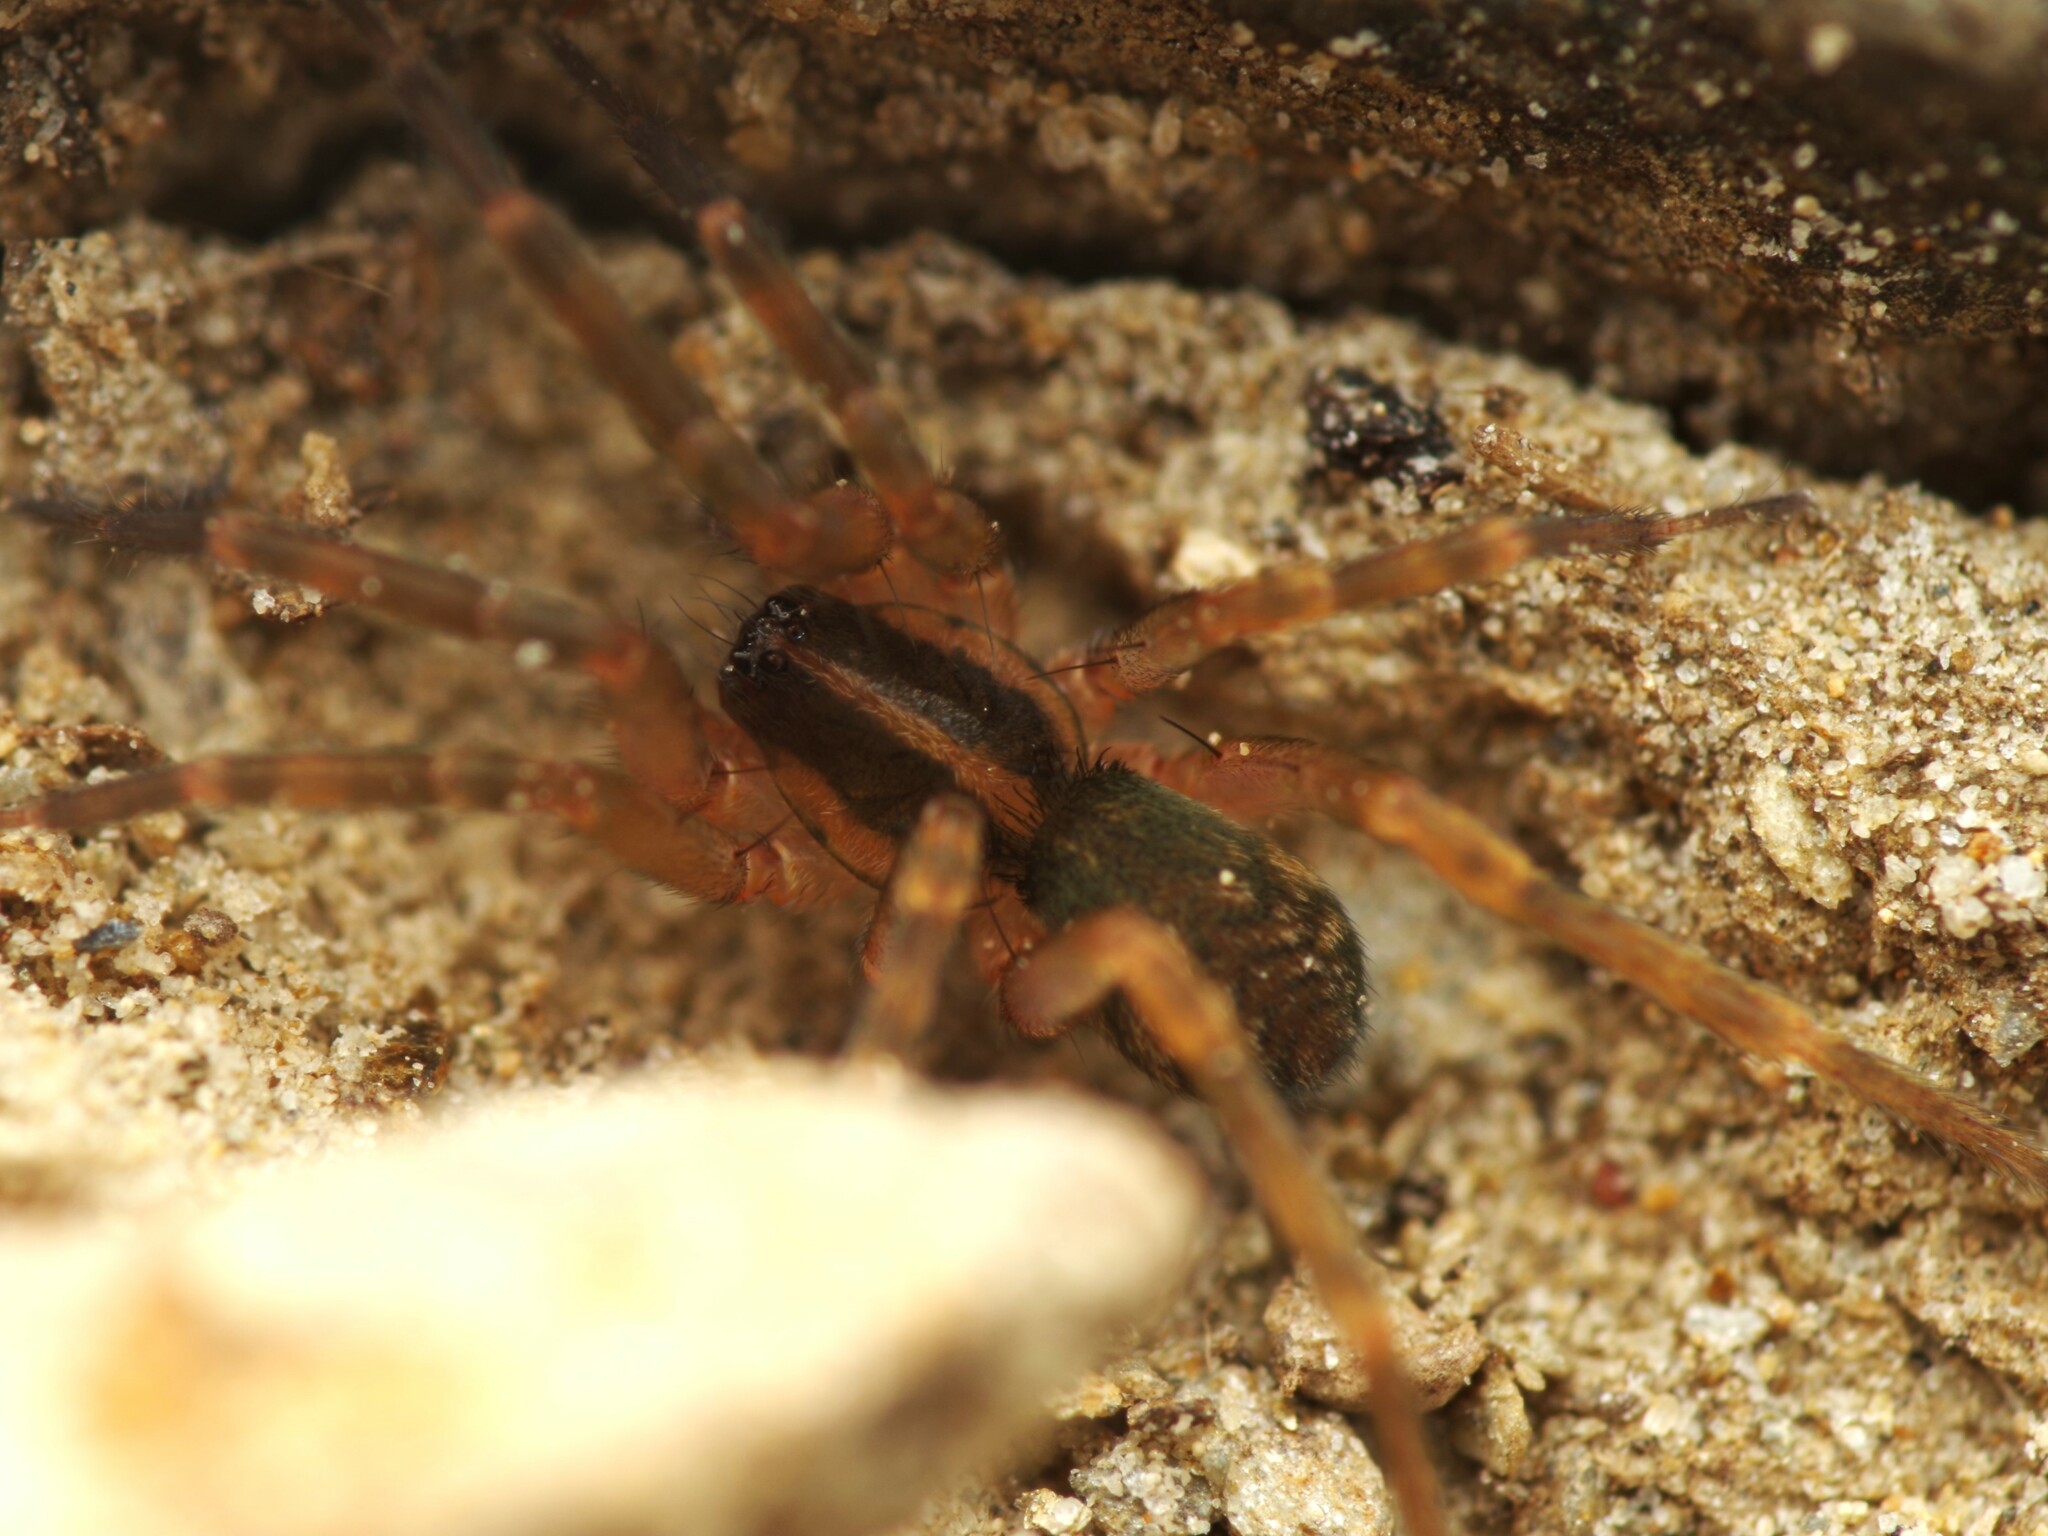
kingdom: Animalia
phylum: Arthropoda
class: Arachnida
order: Araneae
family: Liocranidae
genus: Scotina
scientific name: Scotina celans
